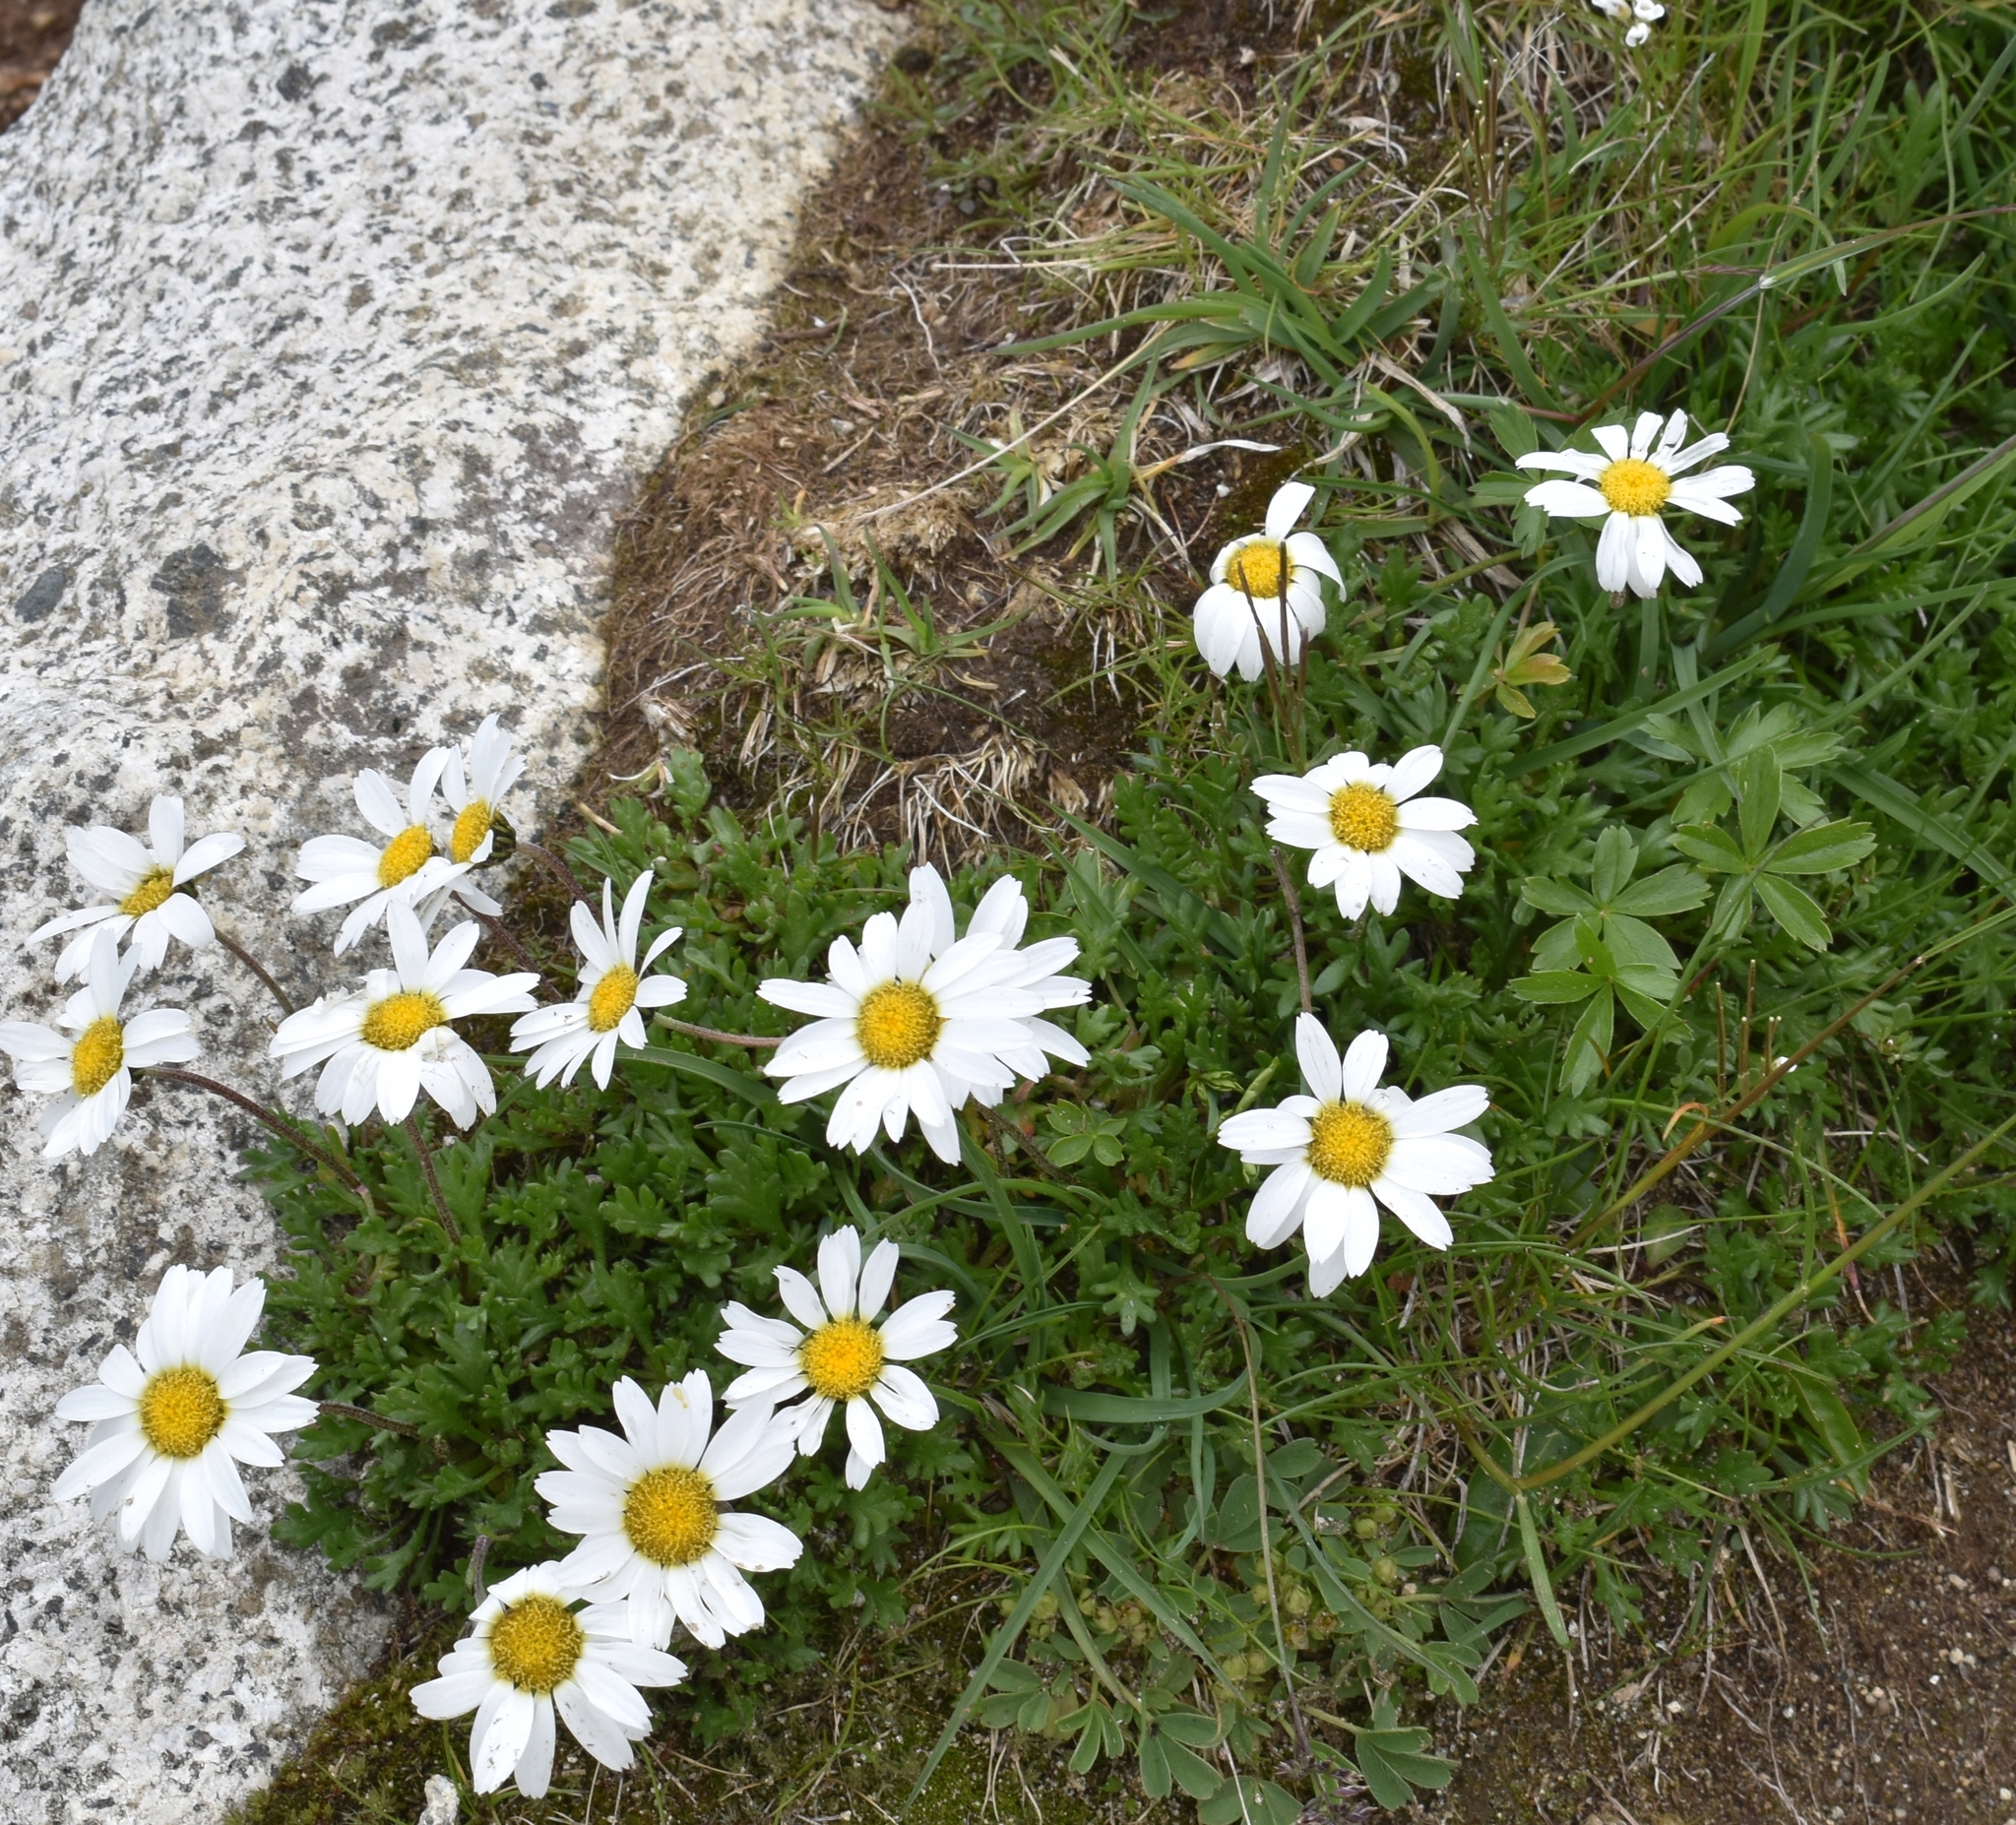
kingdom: Plantae
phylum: Tracheophyta
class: Magnoliopsida
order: Asterales
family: Asteraceae
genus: Leucanthemopsis
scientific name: Leucanthemopsis alpina
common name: Alpine moon daisy
